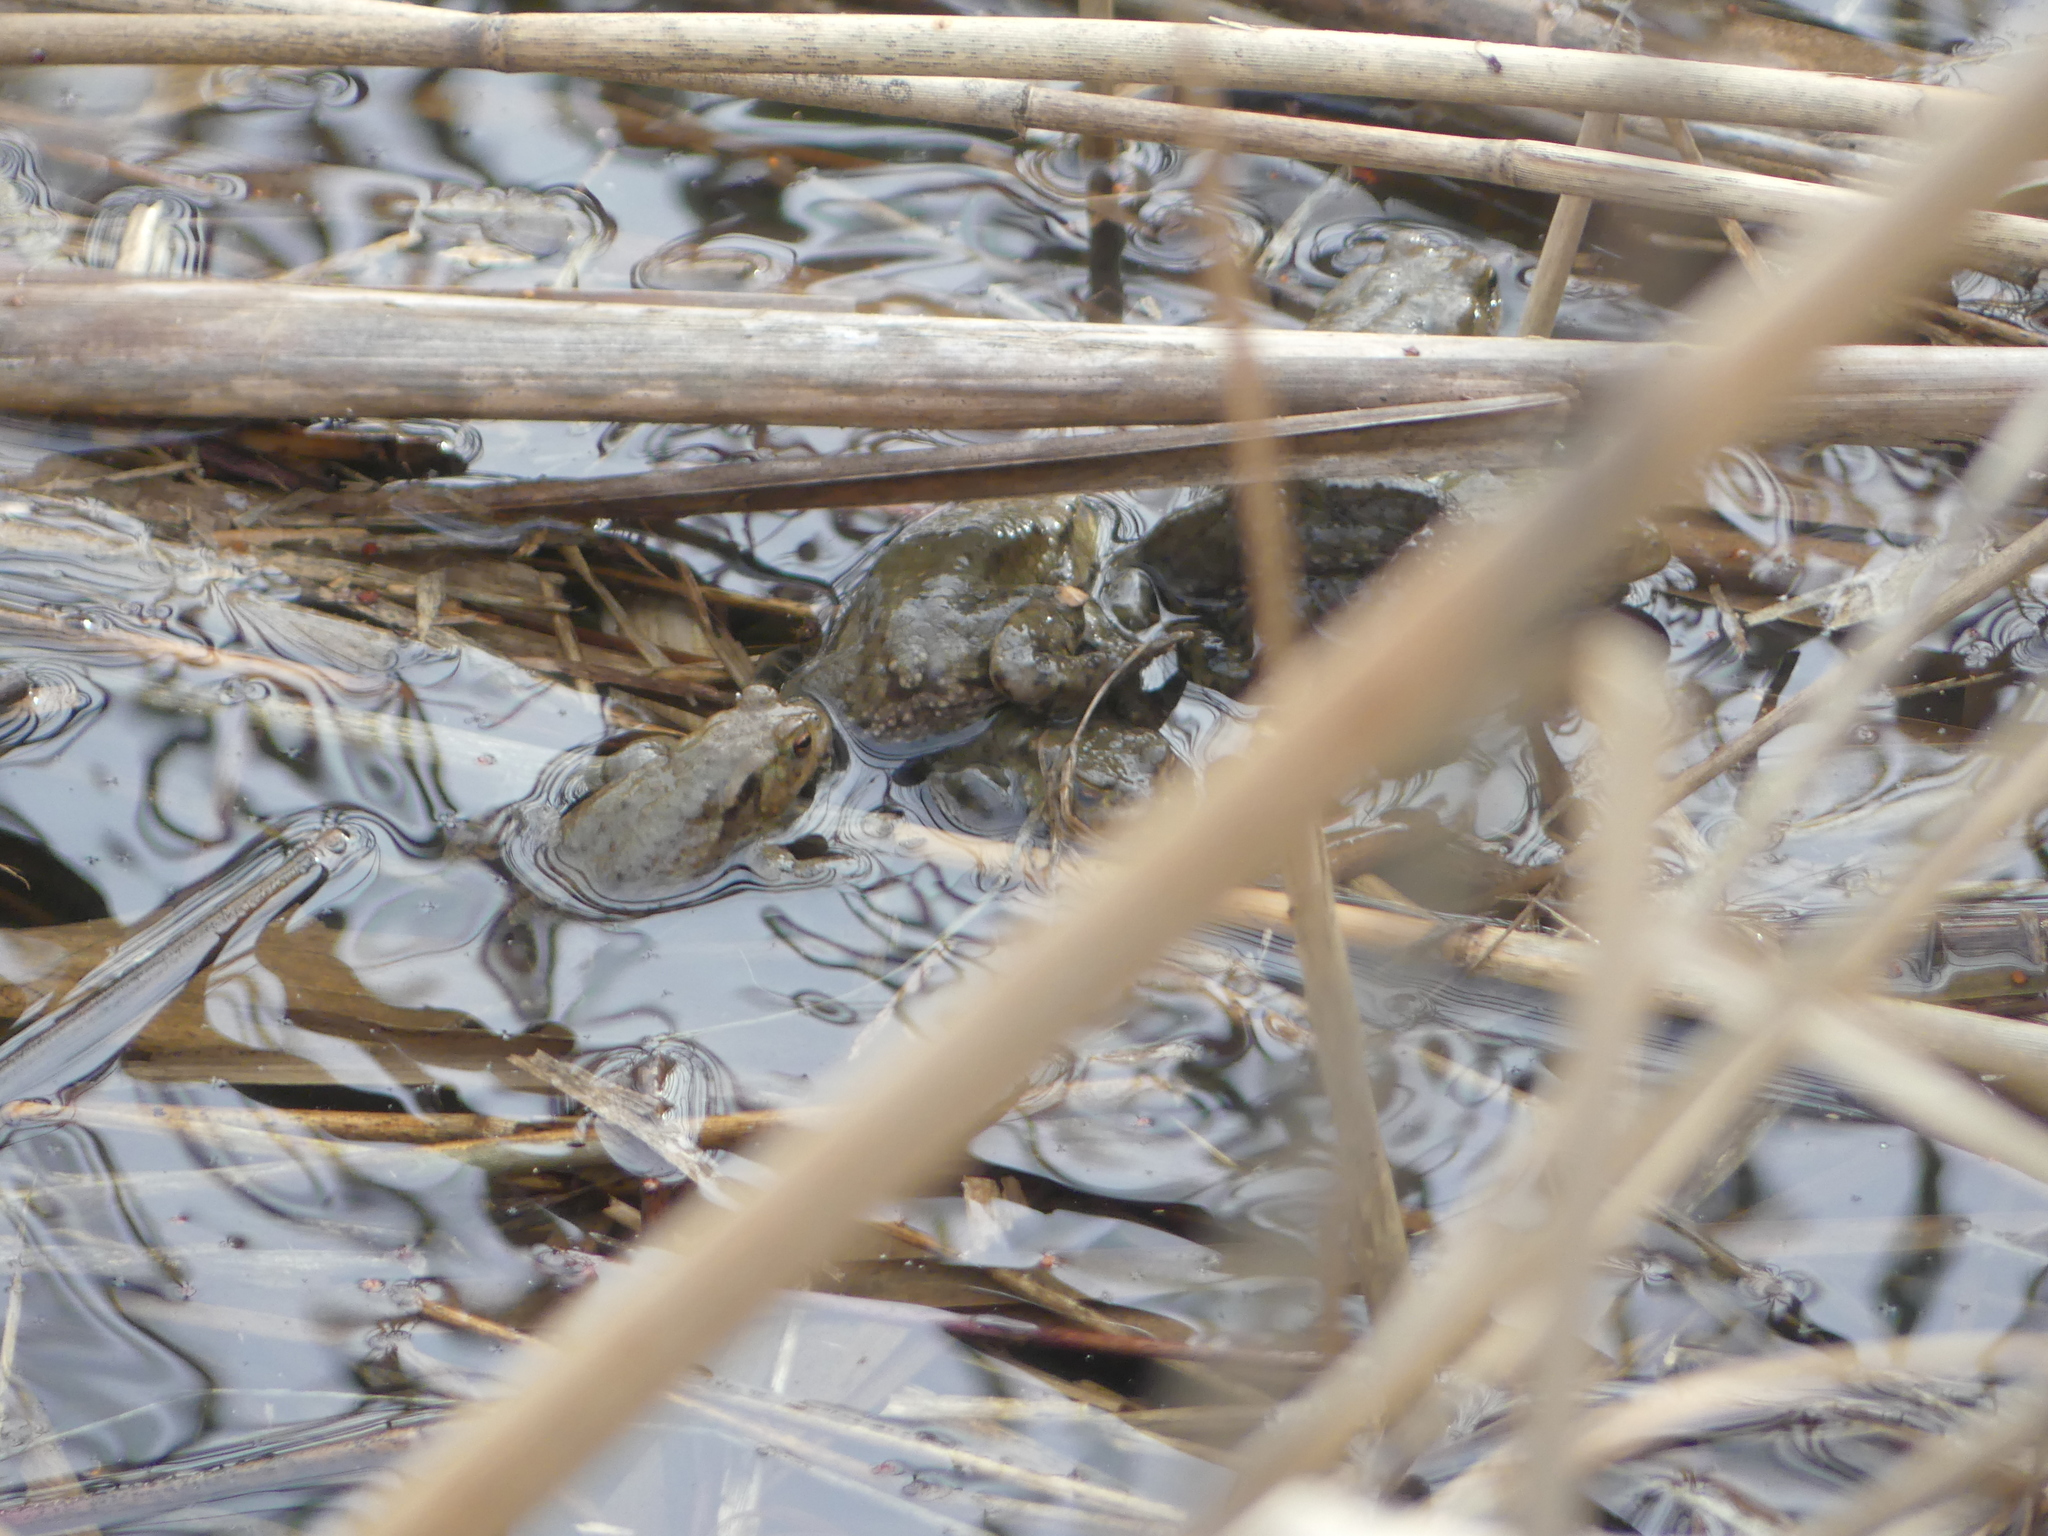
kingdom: Animalia
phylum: Chordata
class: Amphibia
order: Anura
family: Bufonidae
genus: Bufo
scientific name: Bufo bufo
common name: Common toad
